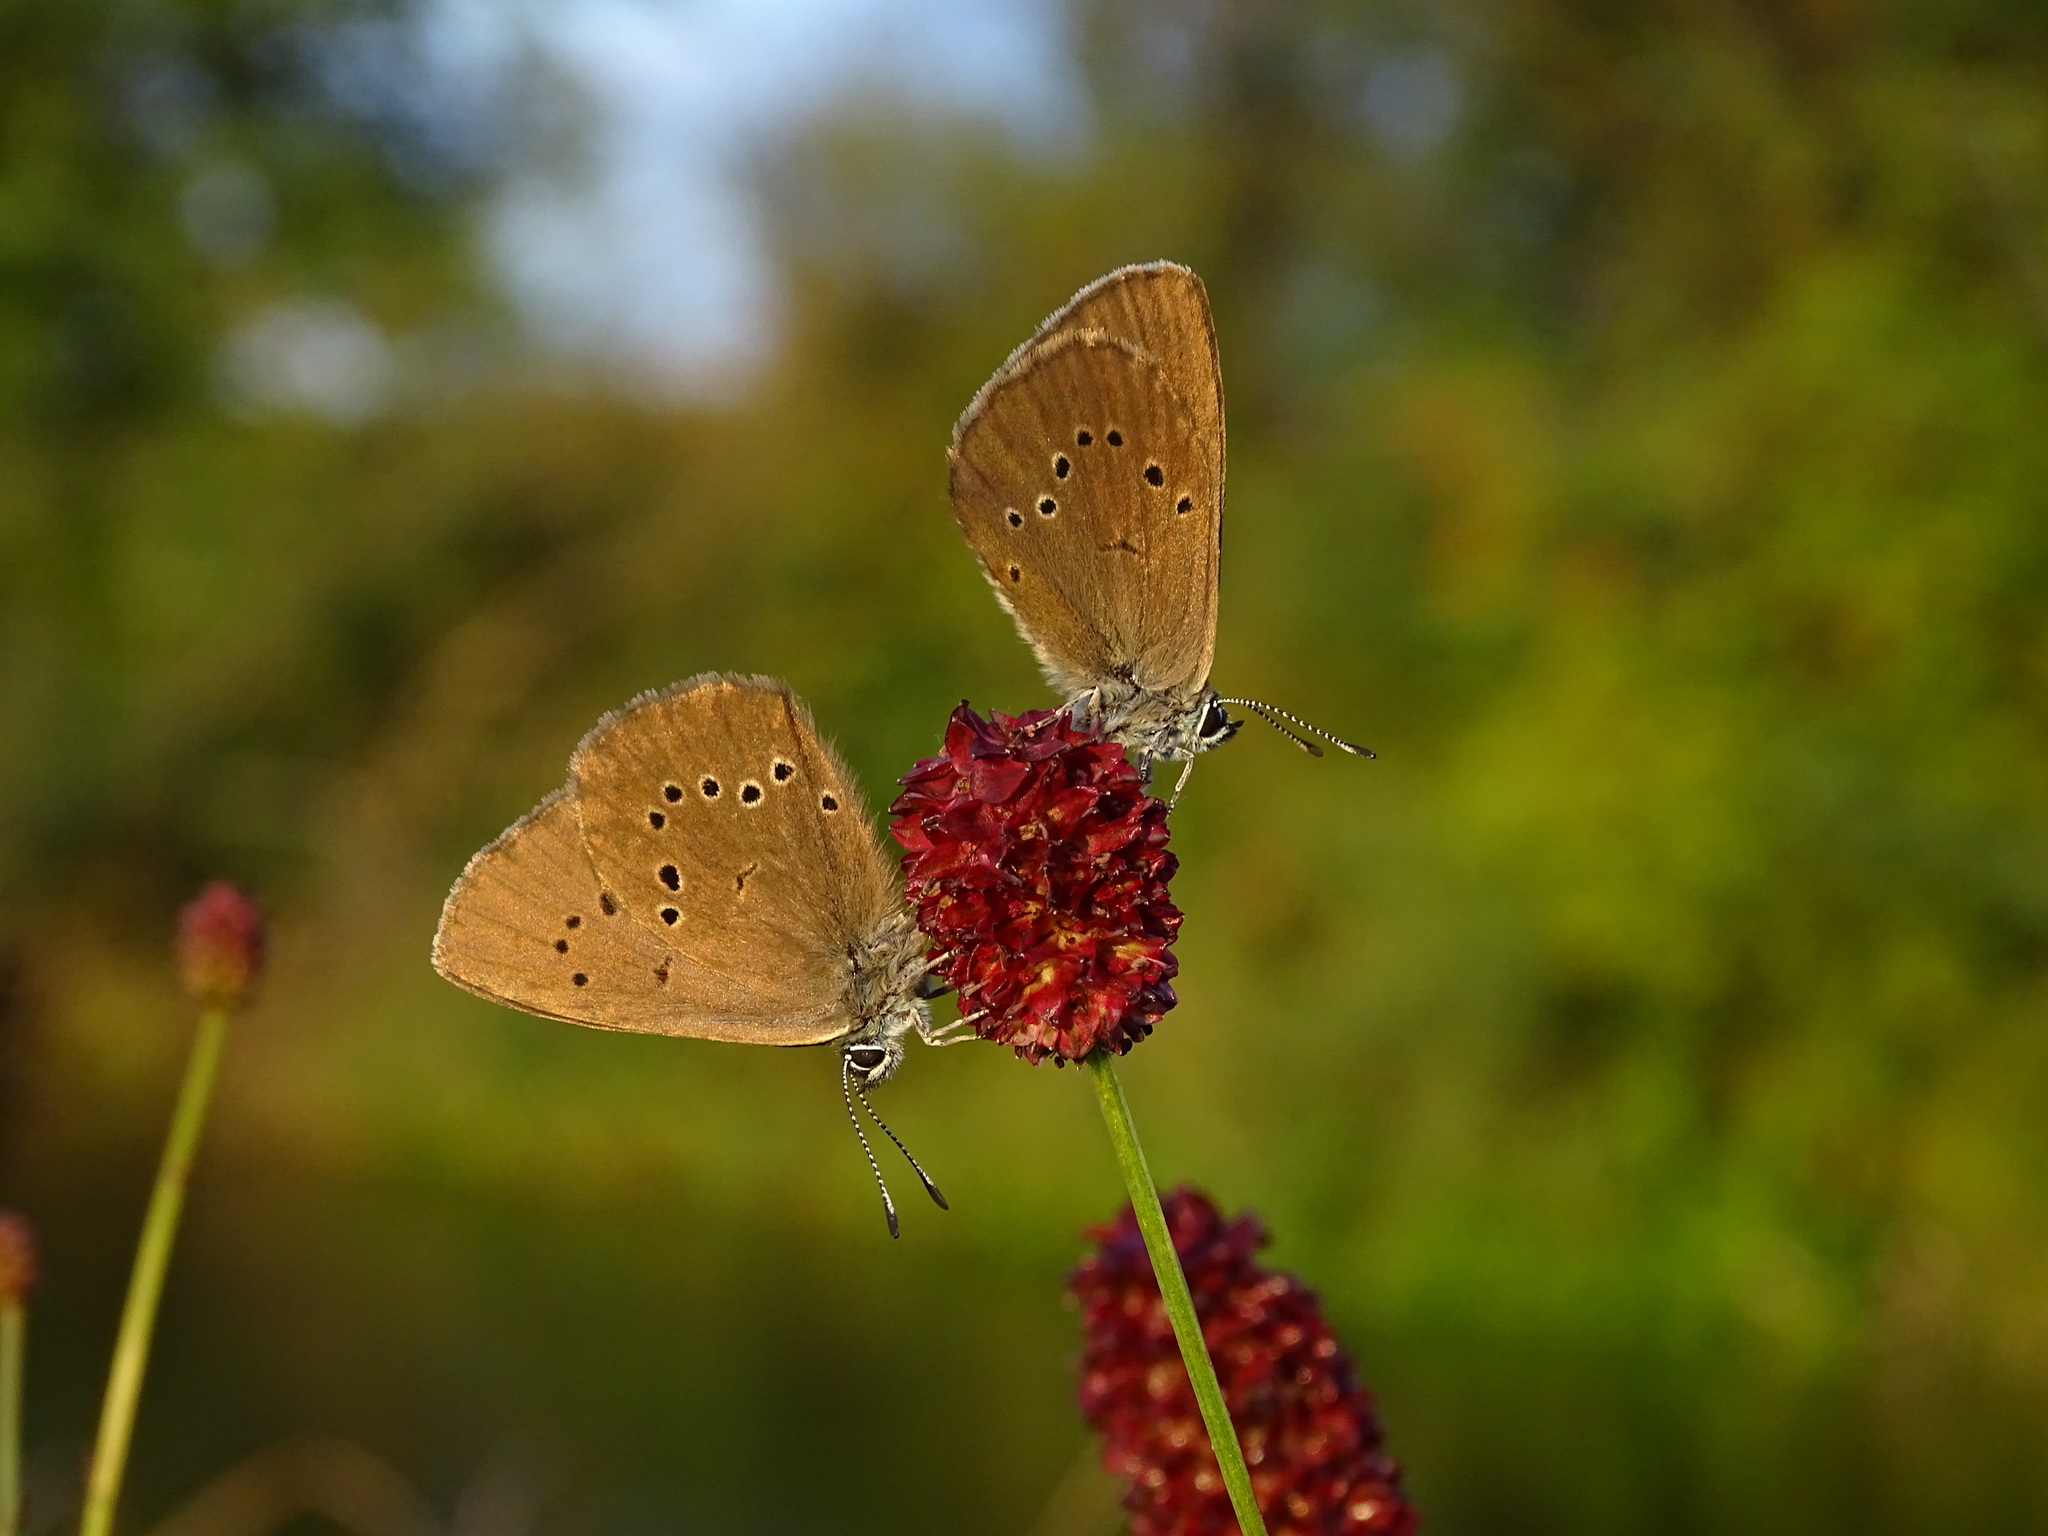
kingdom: Animalia
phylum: Arthropoda
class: Insecta
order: Lepidoptera
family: Lycaenidae
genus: Maculinea
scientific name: Maculinea nausithous
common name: Dusky large blue
